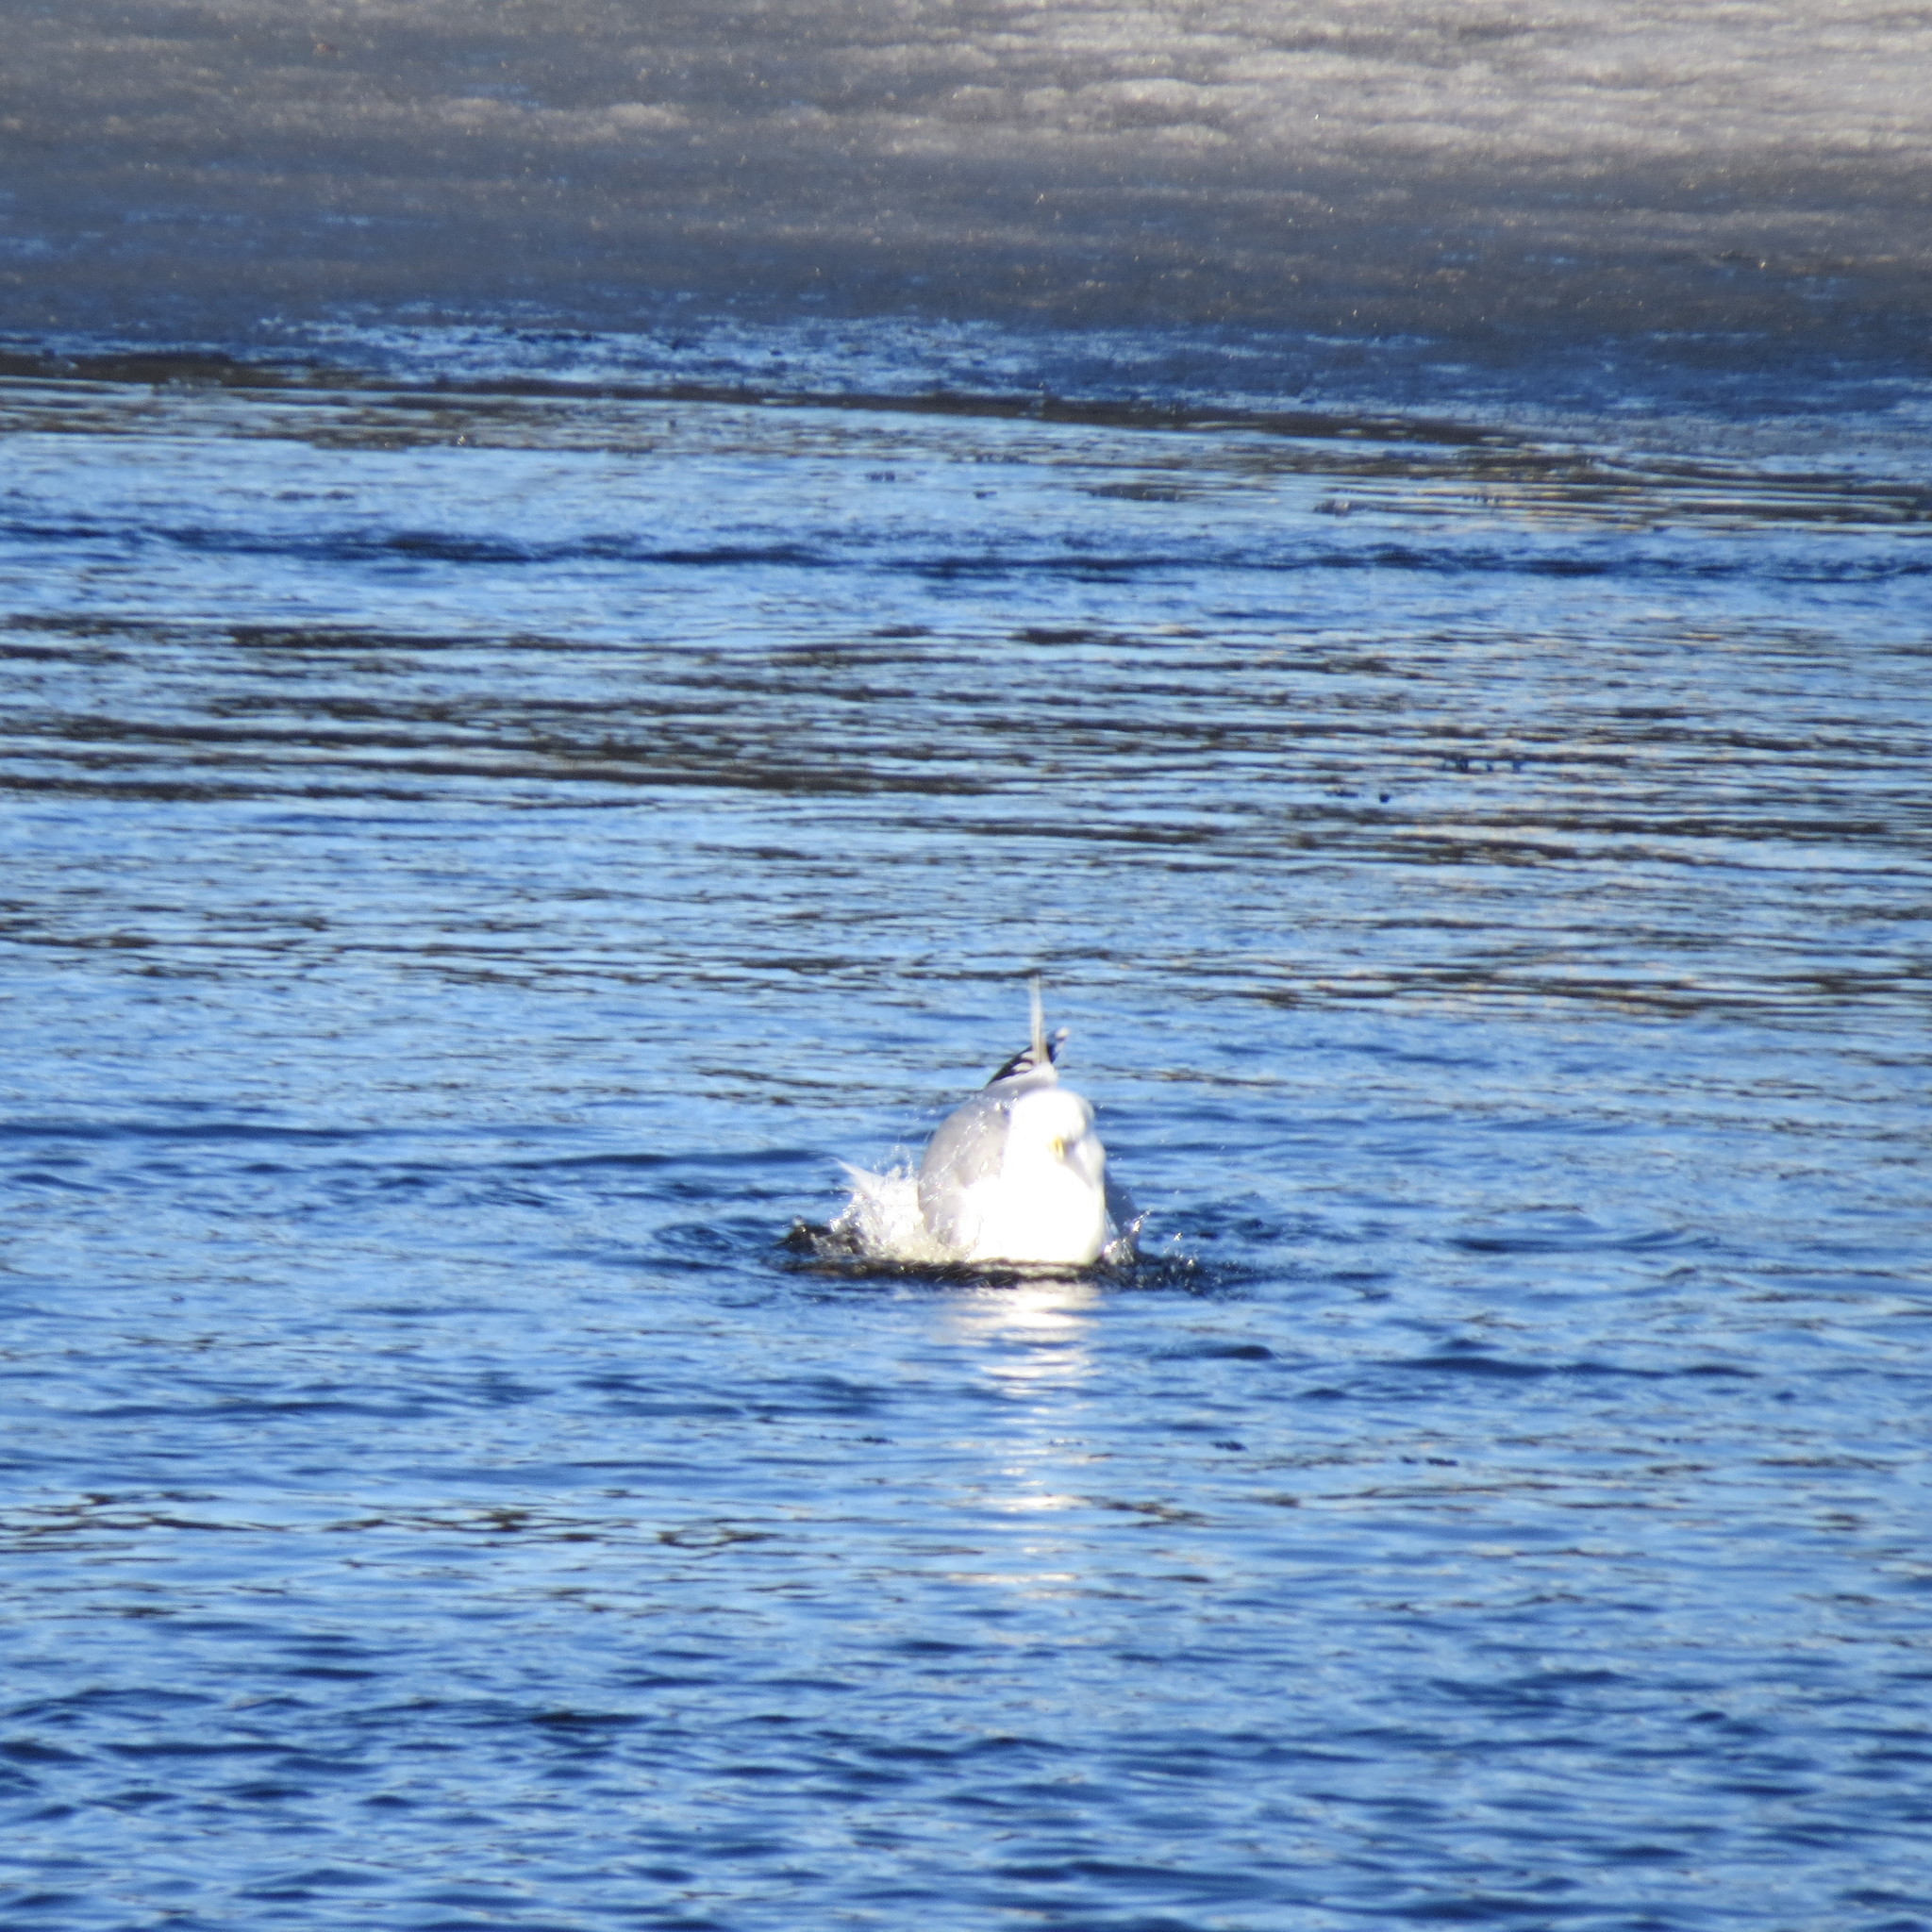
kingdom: Animalia
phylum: Chordata
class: Aves
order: Charadriiformes
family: Laridae
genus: Larus
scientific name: Larus argentatus
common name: Herring gull
